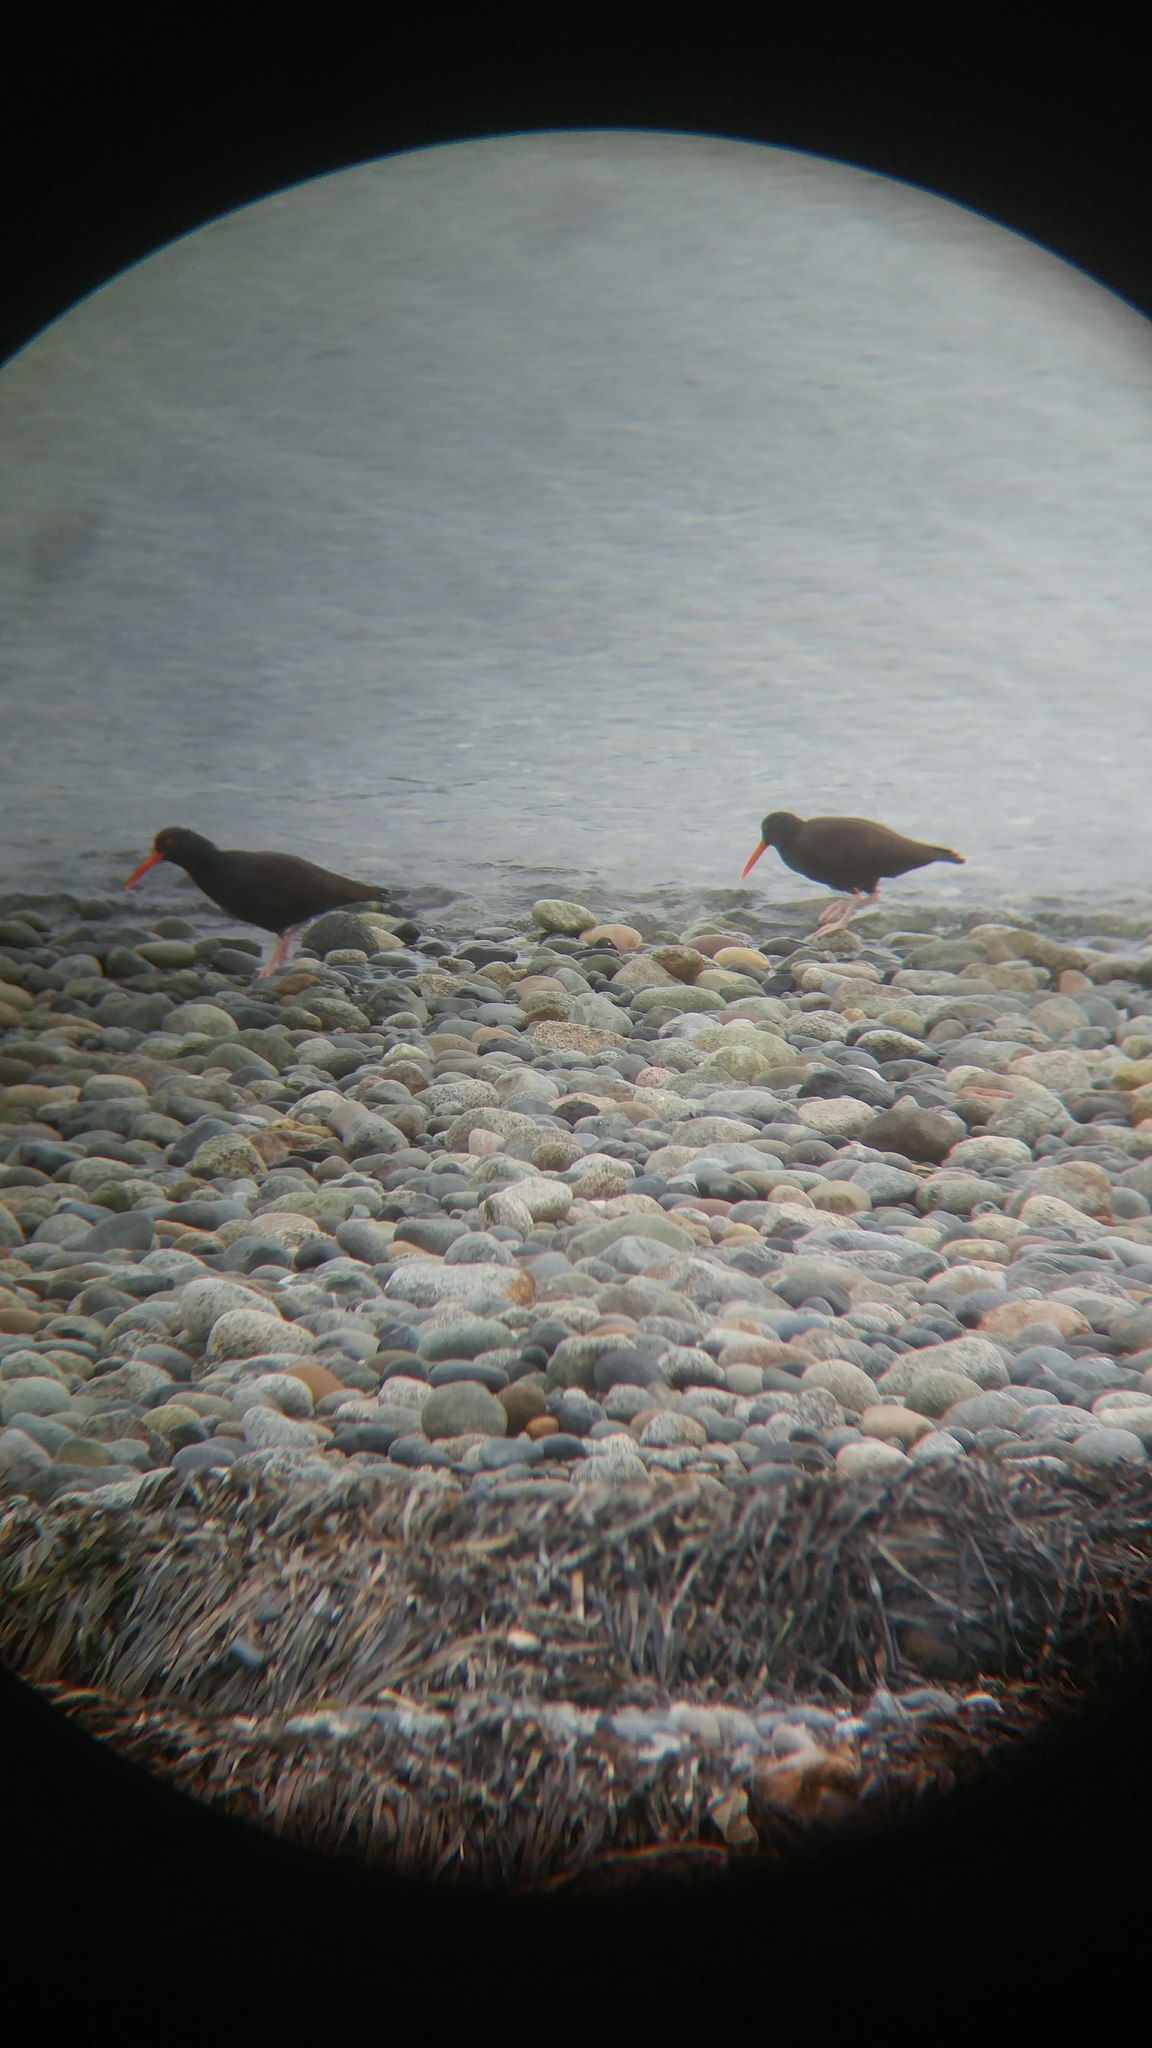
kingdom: Animalia
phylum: Chordata
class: Aves
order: Charadriiformes
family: Haematopodidae
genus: Haematopus
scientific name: Haematopus bachmani
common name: Black oystercatcher
